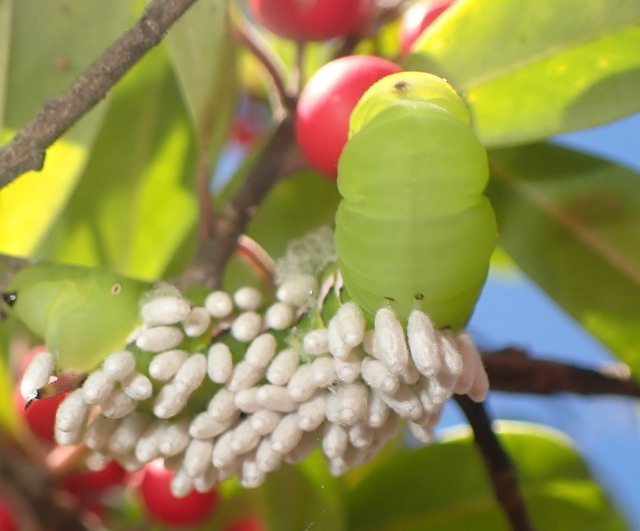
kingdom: Animalia
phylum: Arthropoda
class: Insecta
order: Hymenoptera
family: Braconidae
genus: Cotesia
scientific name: Cotesia congregata
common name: Hornworm parasitoid wasp
